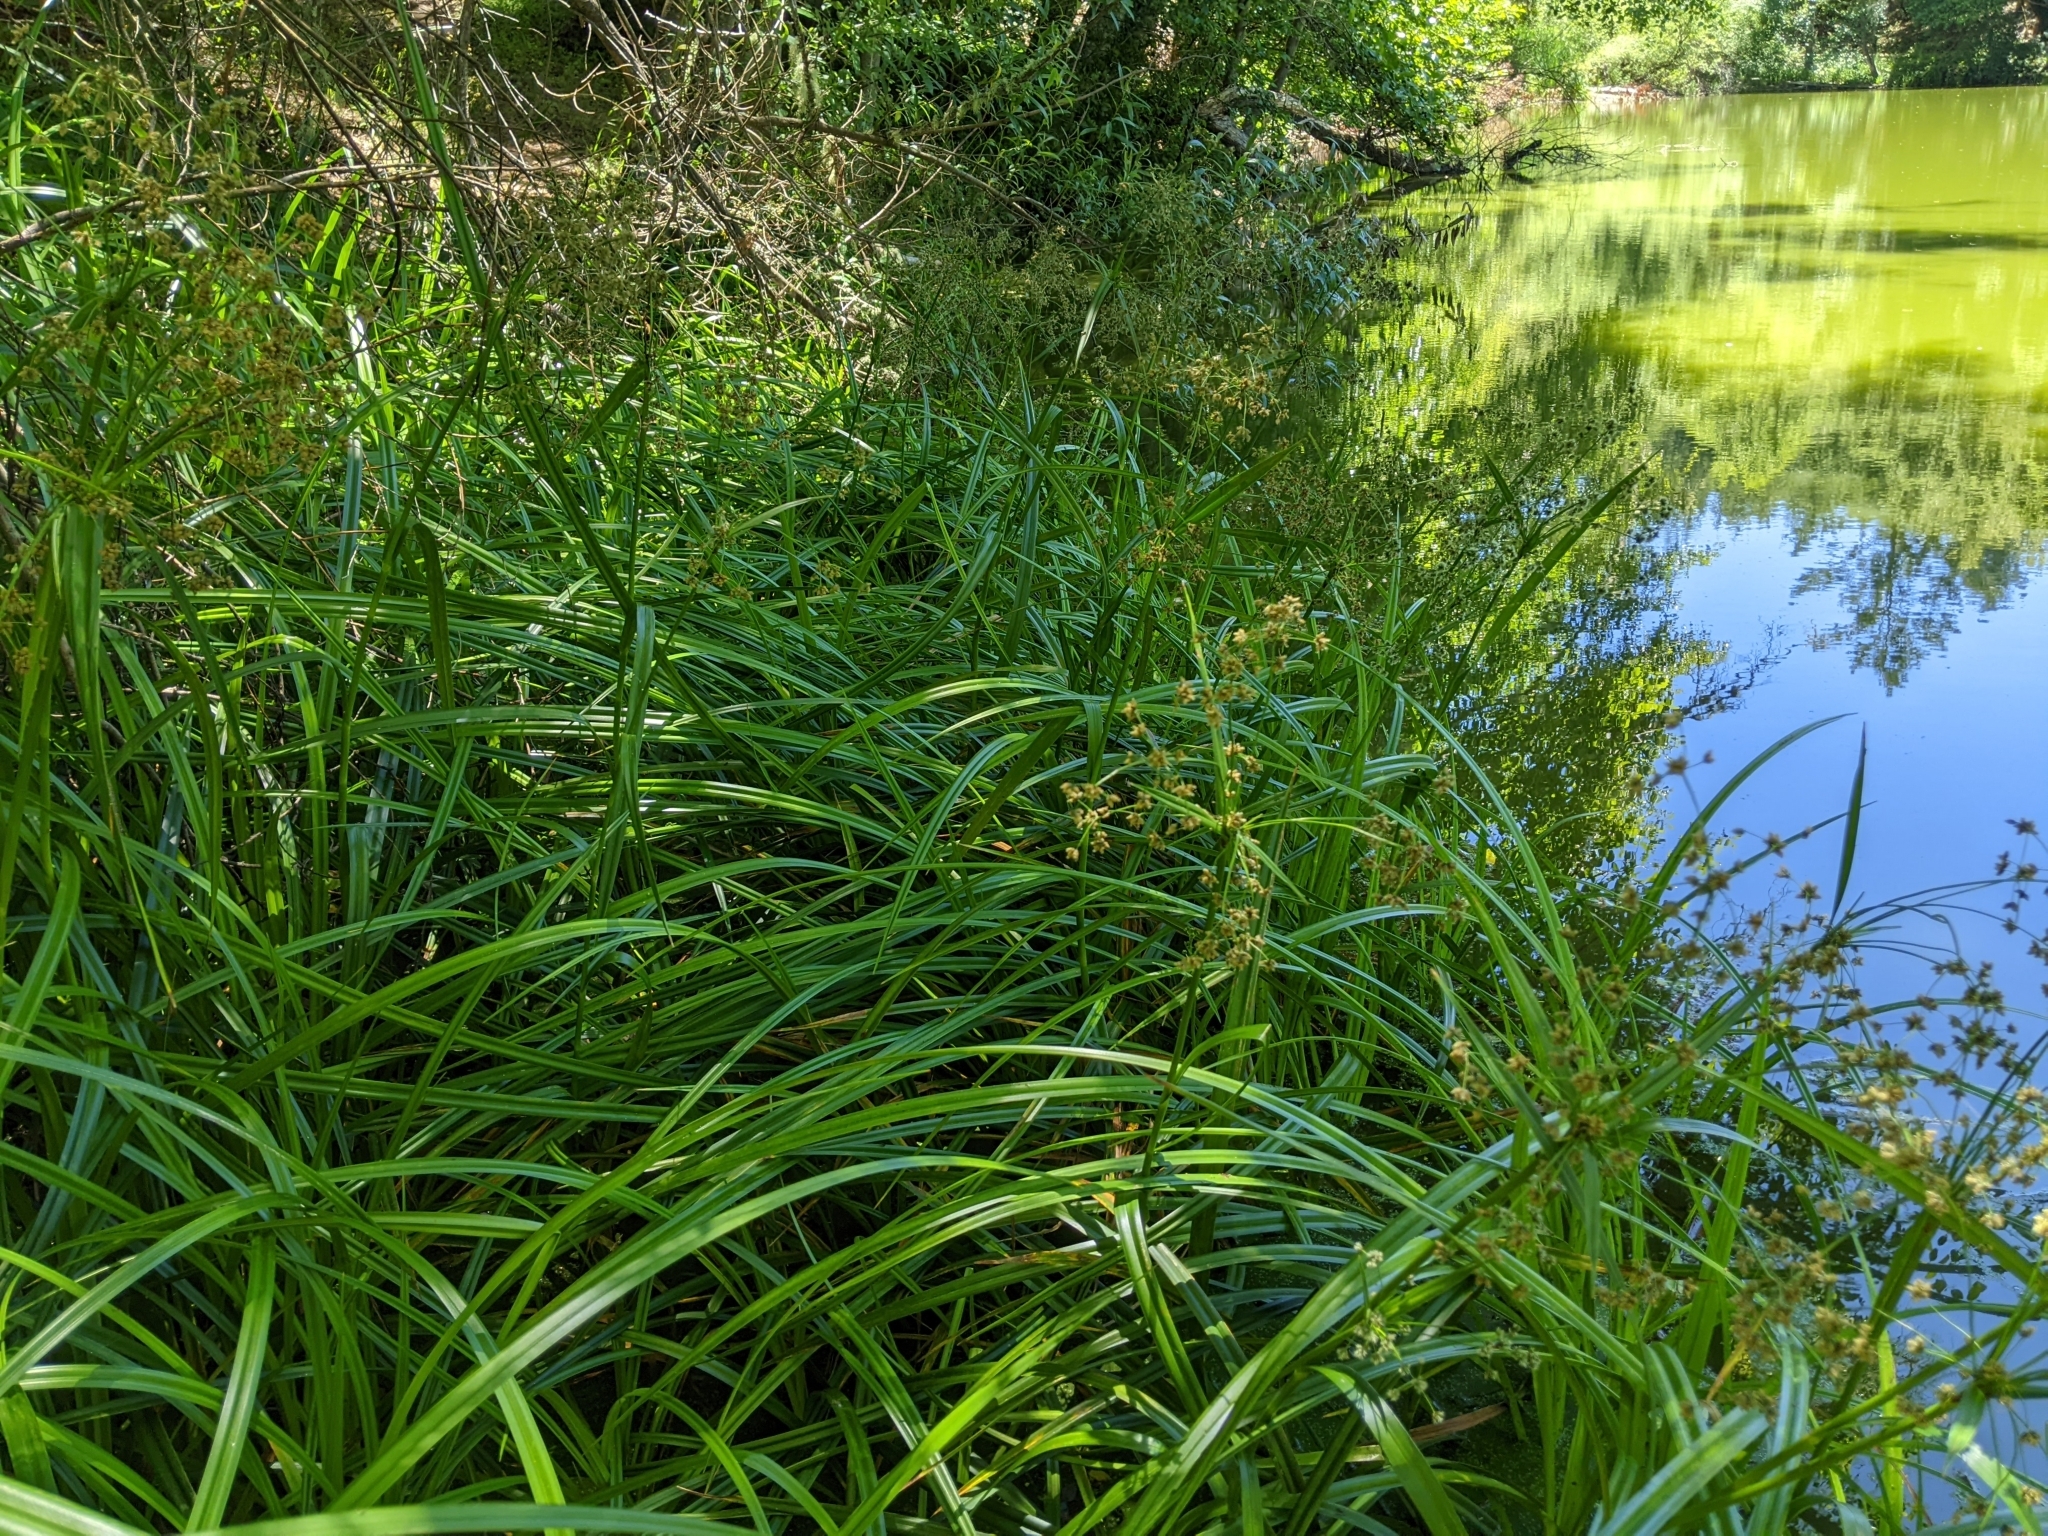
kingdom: Plantae
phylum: Tracheophyta
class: Liliopsida
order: Poales
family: Cyperaceae
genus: Scirpus
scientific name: Scirpus microcarpus
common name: Panicled bulrush
